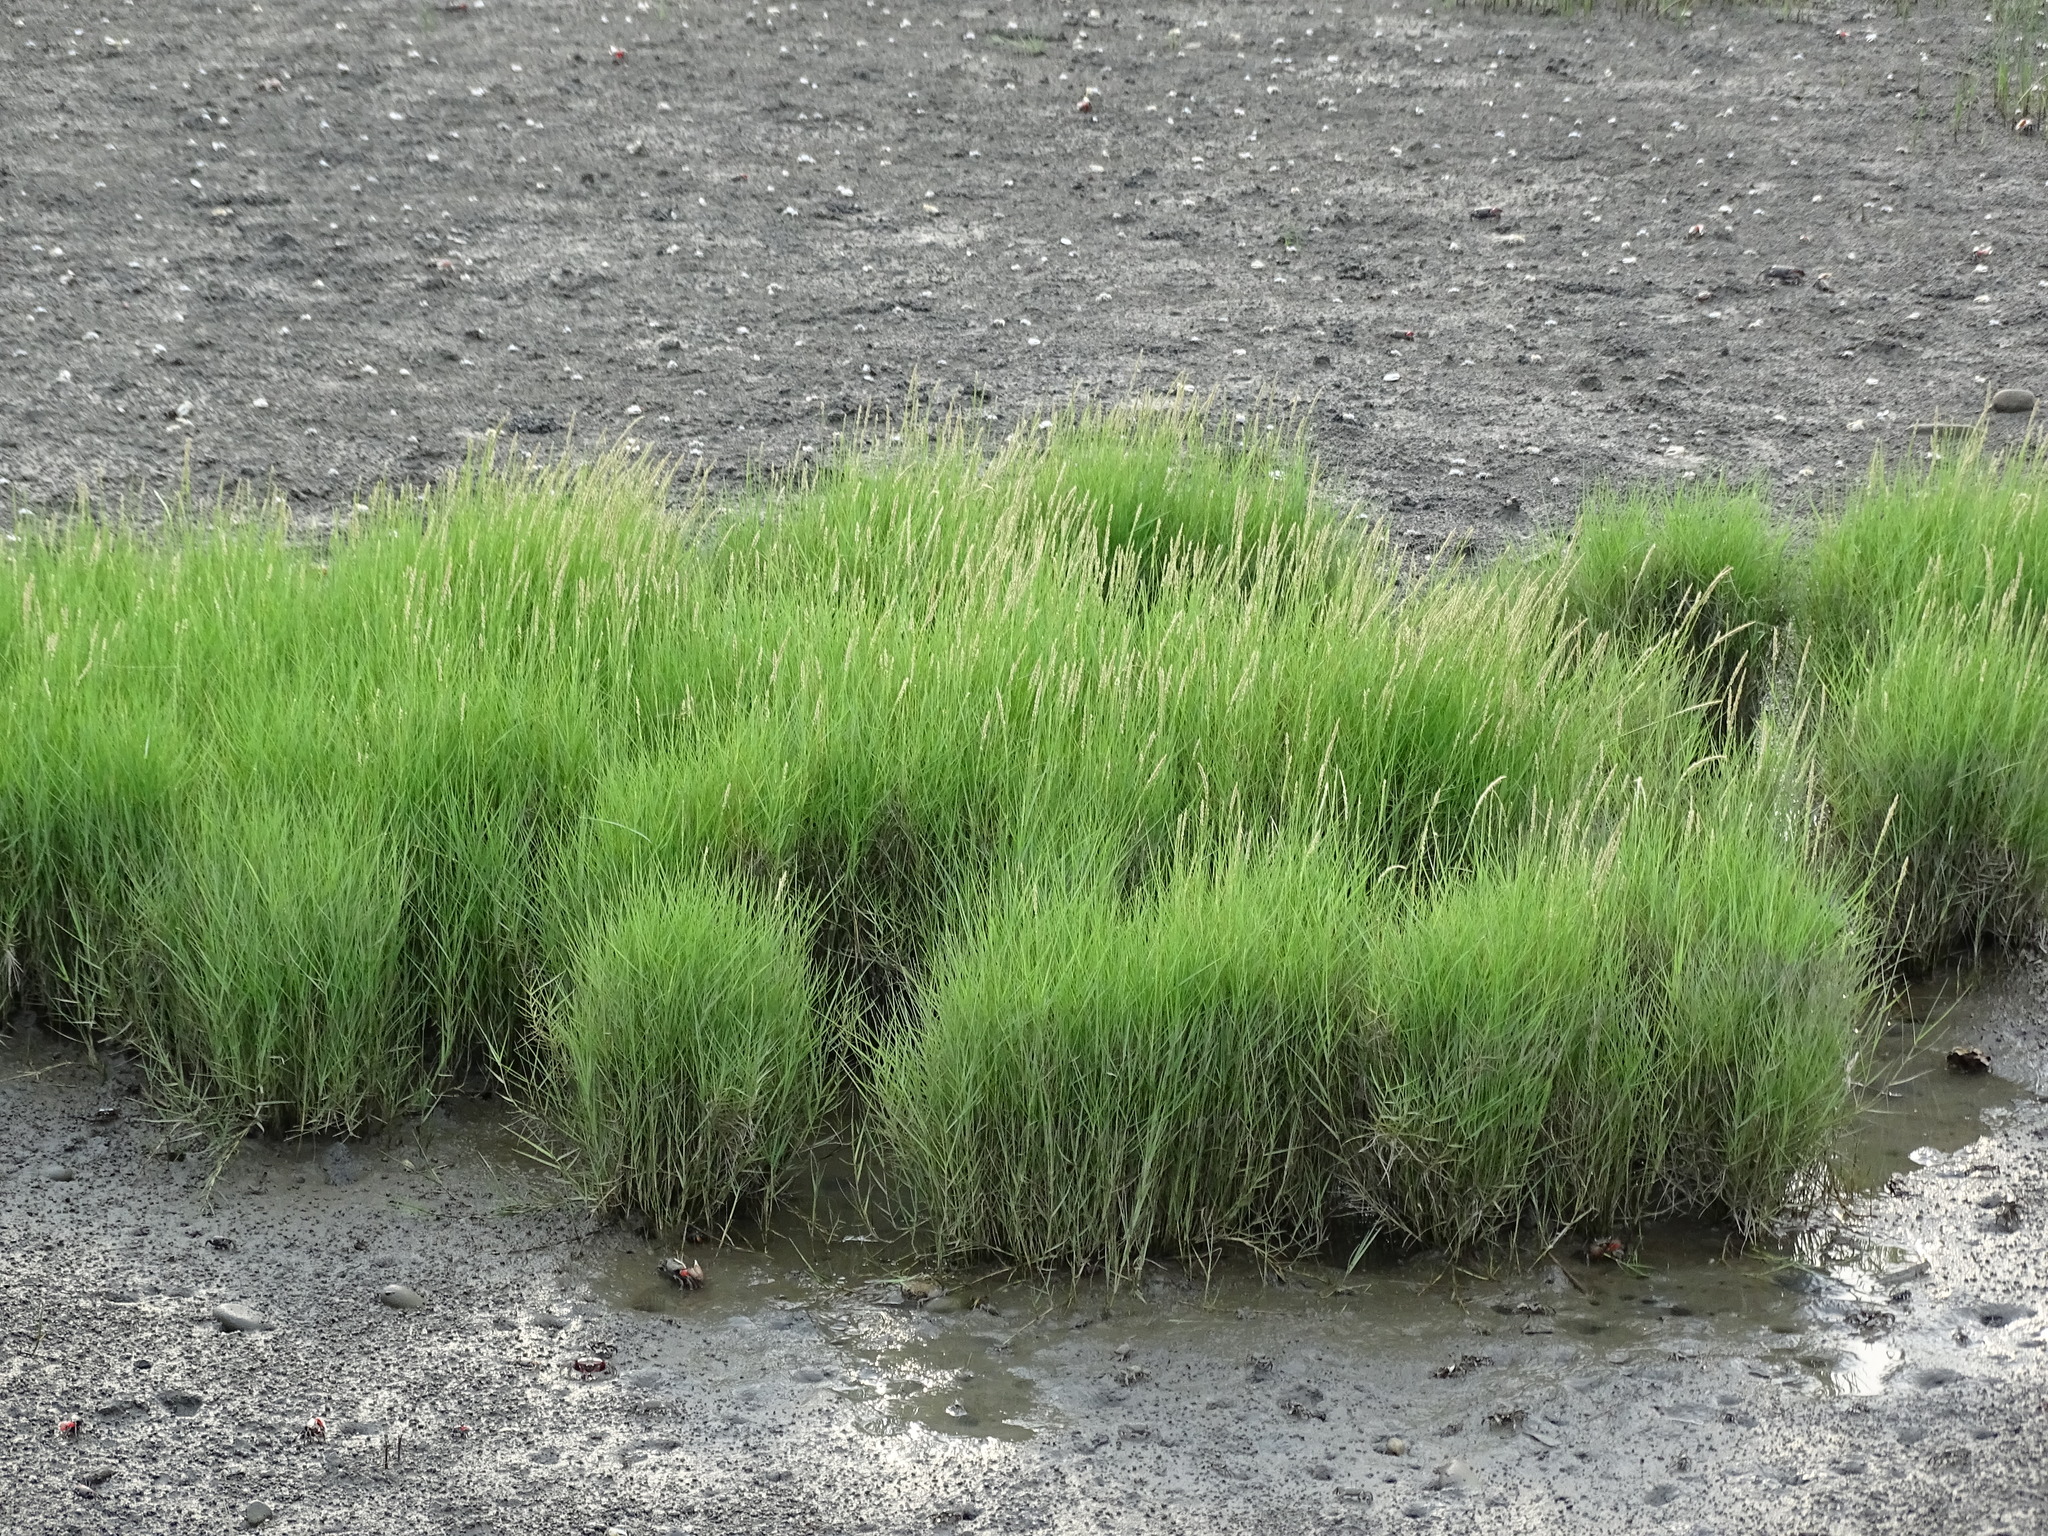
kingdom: Plantae
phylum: Tracheophyta
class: Liliopsida
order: Poales
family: Poaceae
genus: Sporobolus
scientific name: Sporobolus virginicus
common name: Beach dropseed
